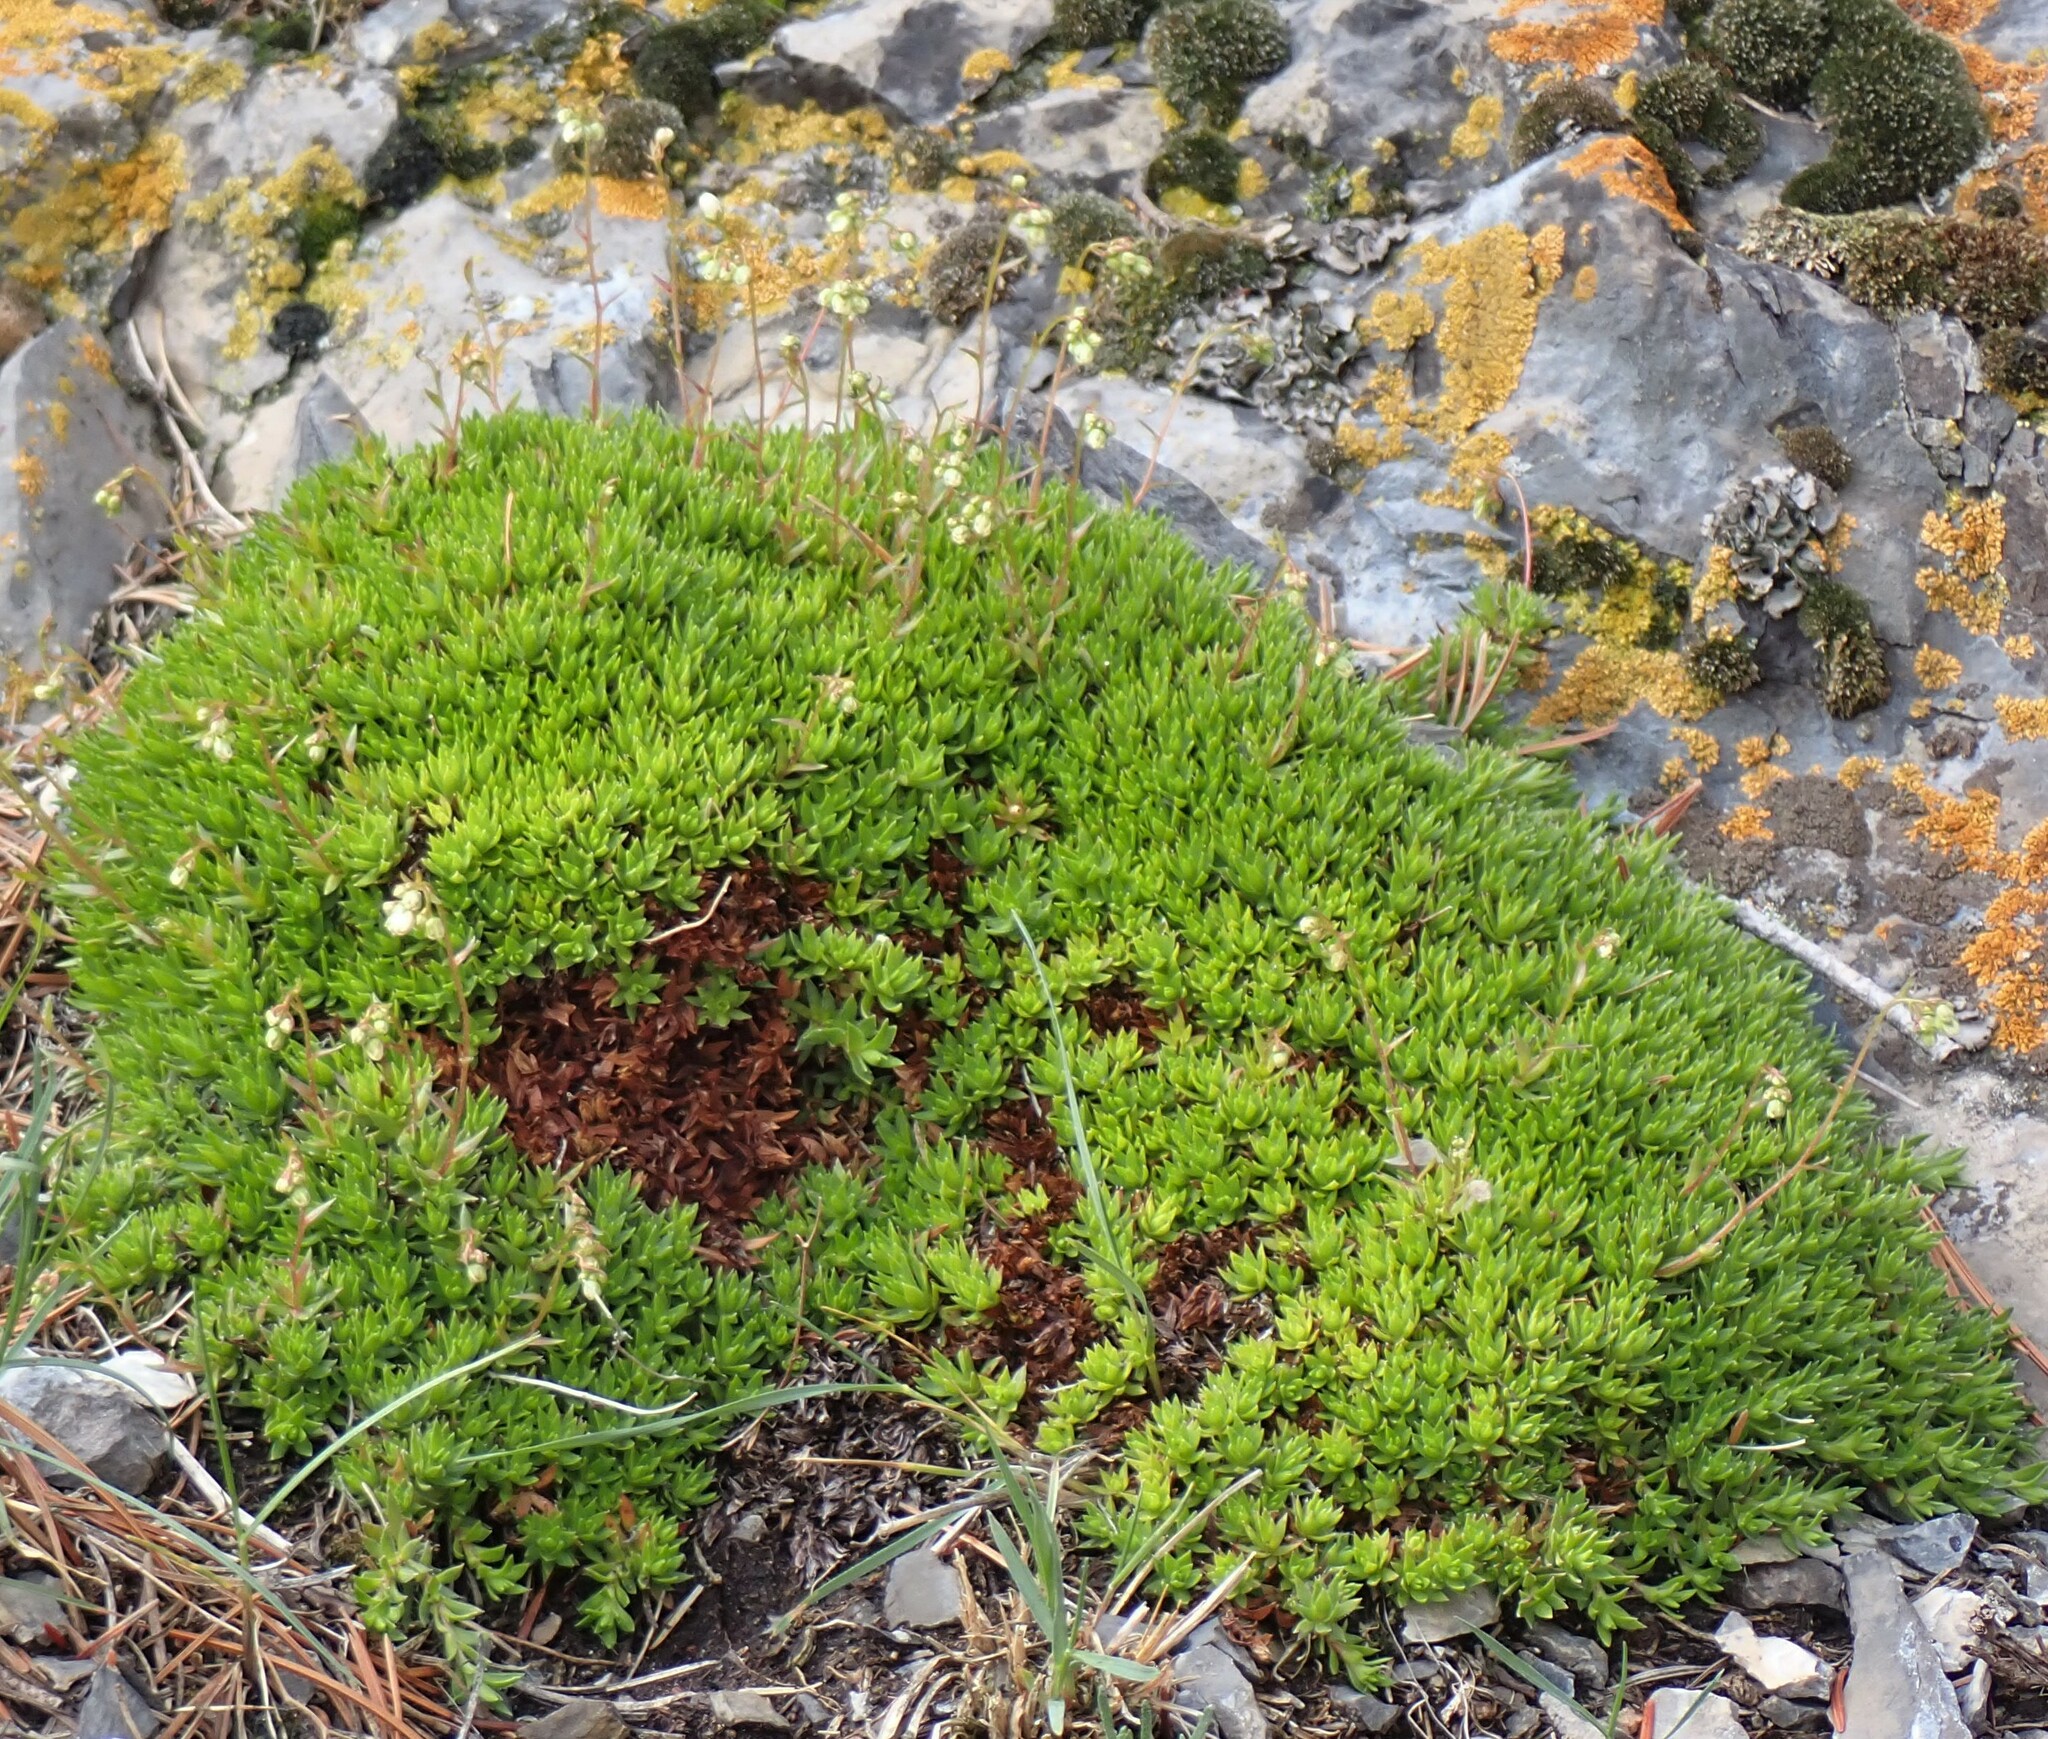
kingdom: Plantae
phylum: Tracheophyta
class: Magnoliopsida
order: Saxifragales
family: Saxifragaceae
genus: Saxifraga
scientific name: Saxifraga bronchialis
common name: Matted saxifrage
